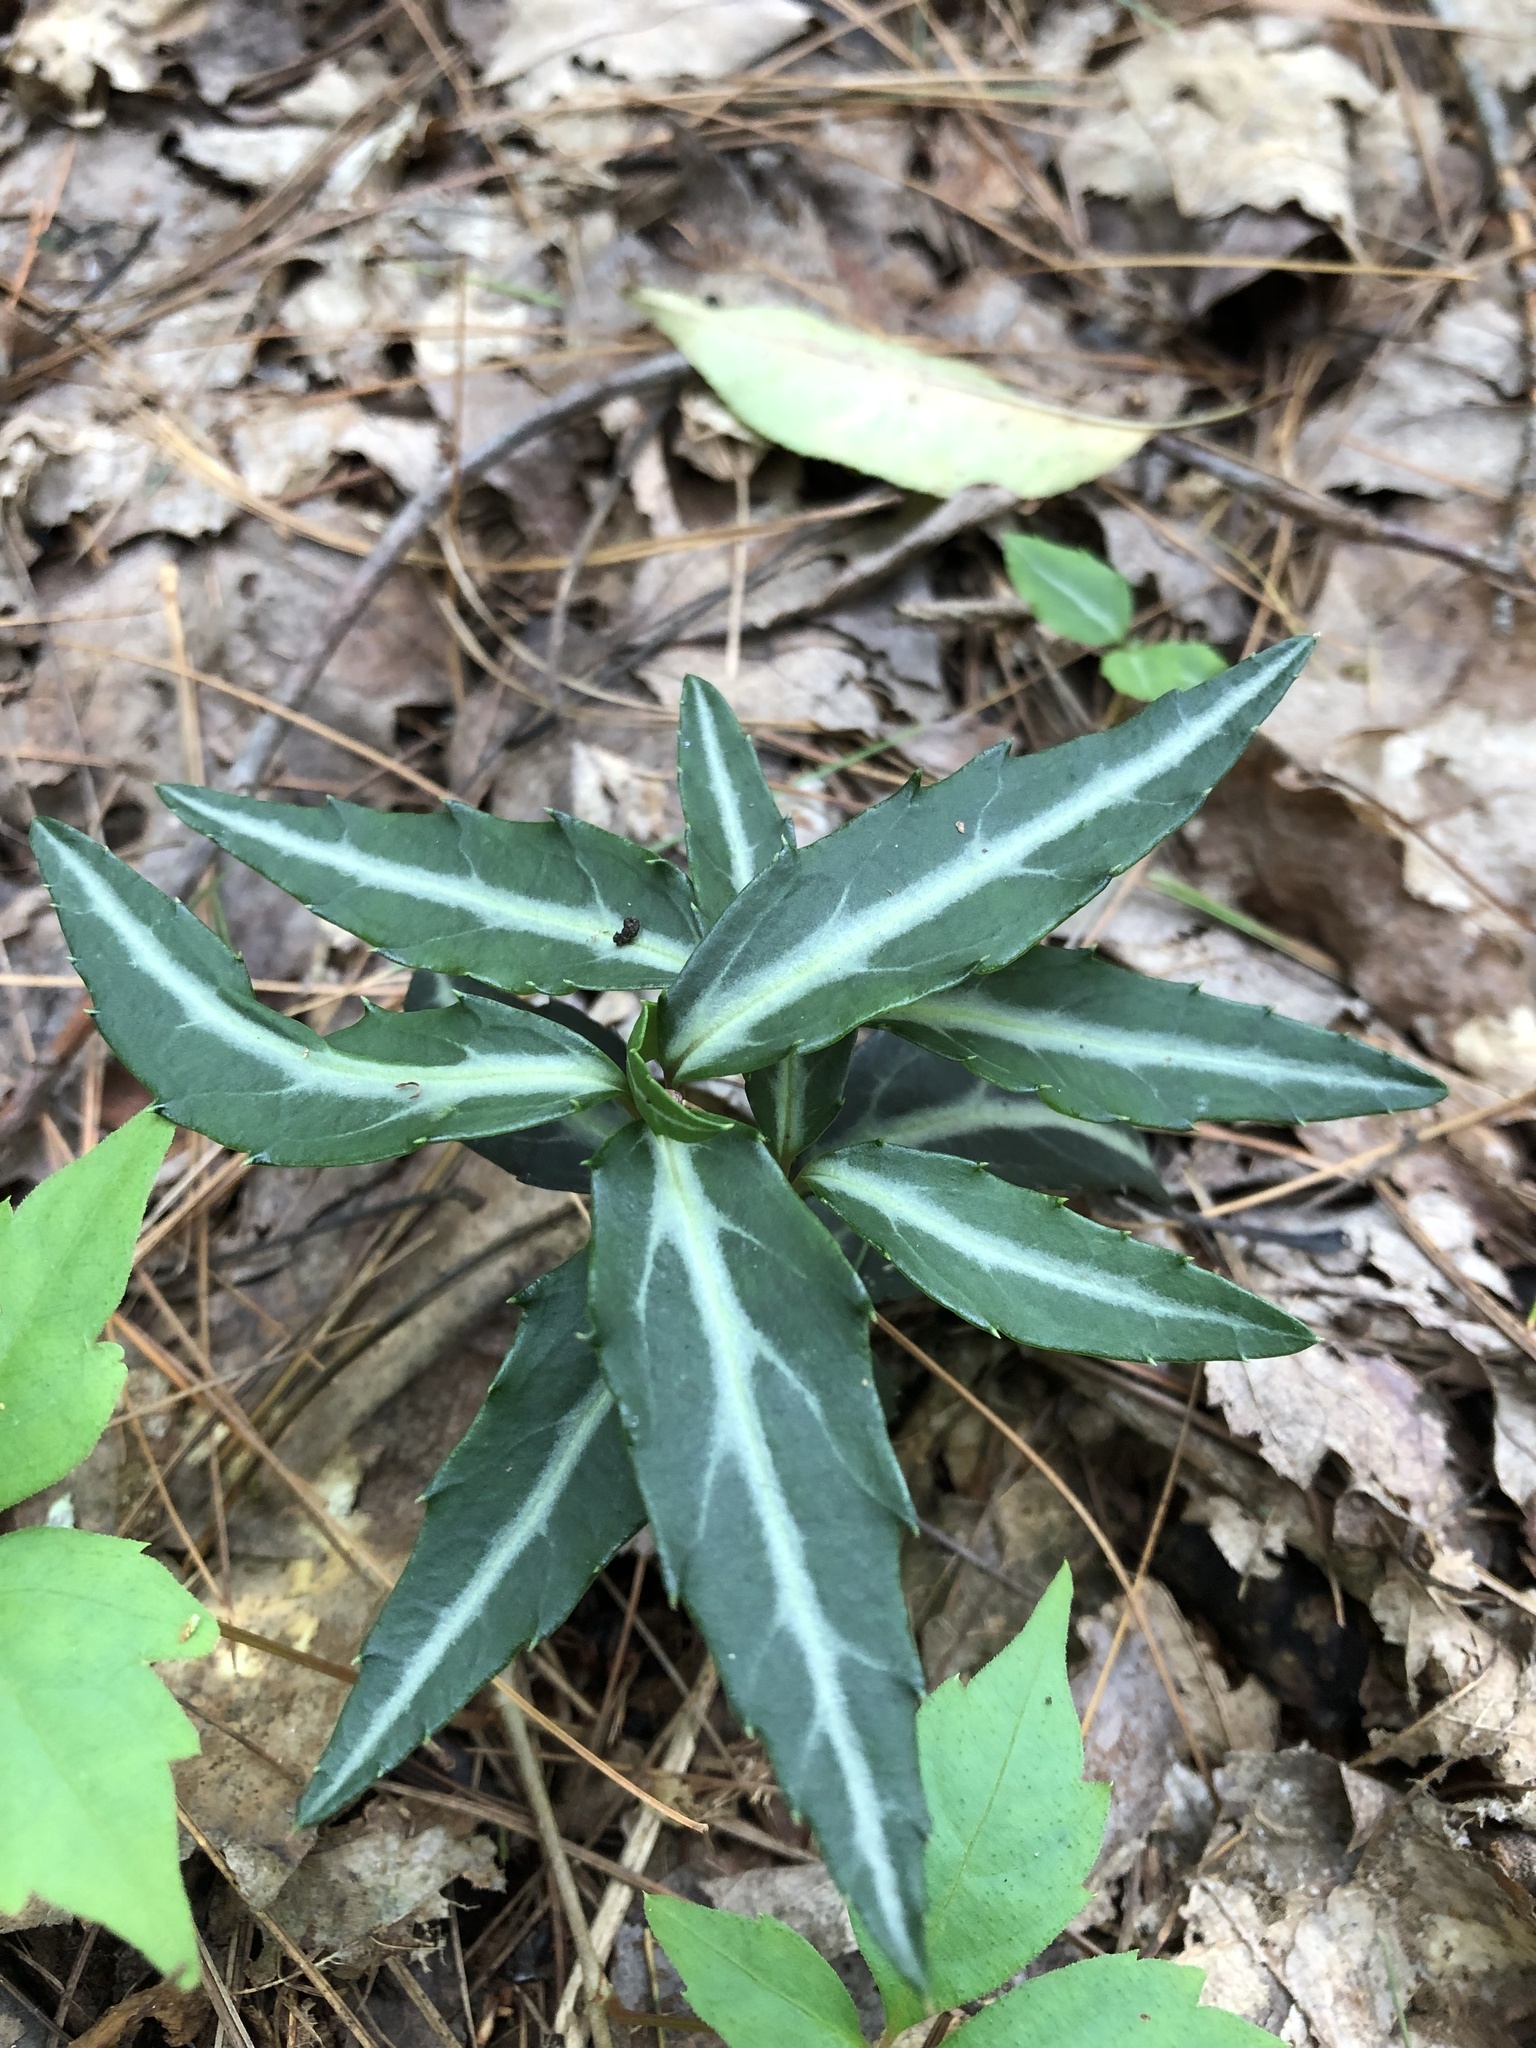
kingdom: Plantae
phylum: Tracheophyta
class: Magnoliopsida
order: Ericales
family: Ericaceae
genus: Chimaphila
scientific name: Chimaphila maculata
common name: Spotted pipsissewa
